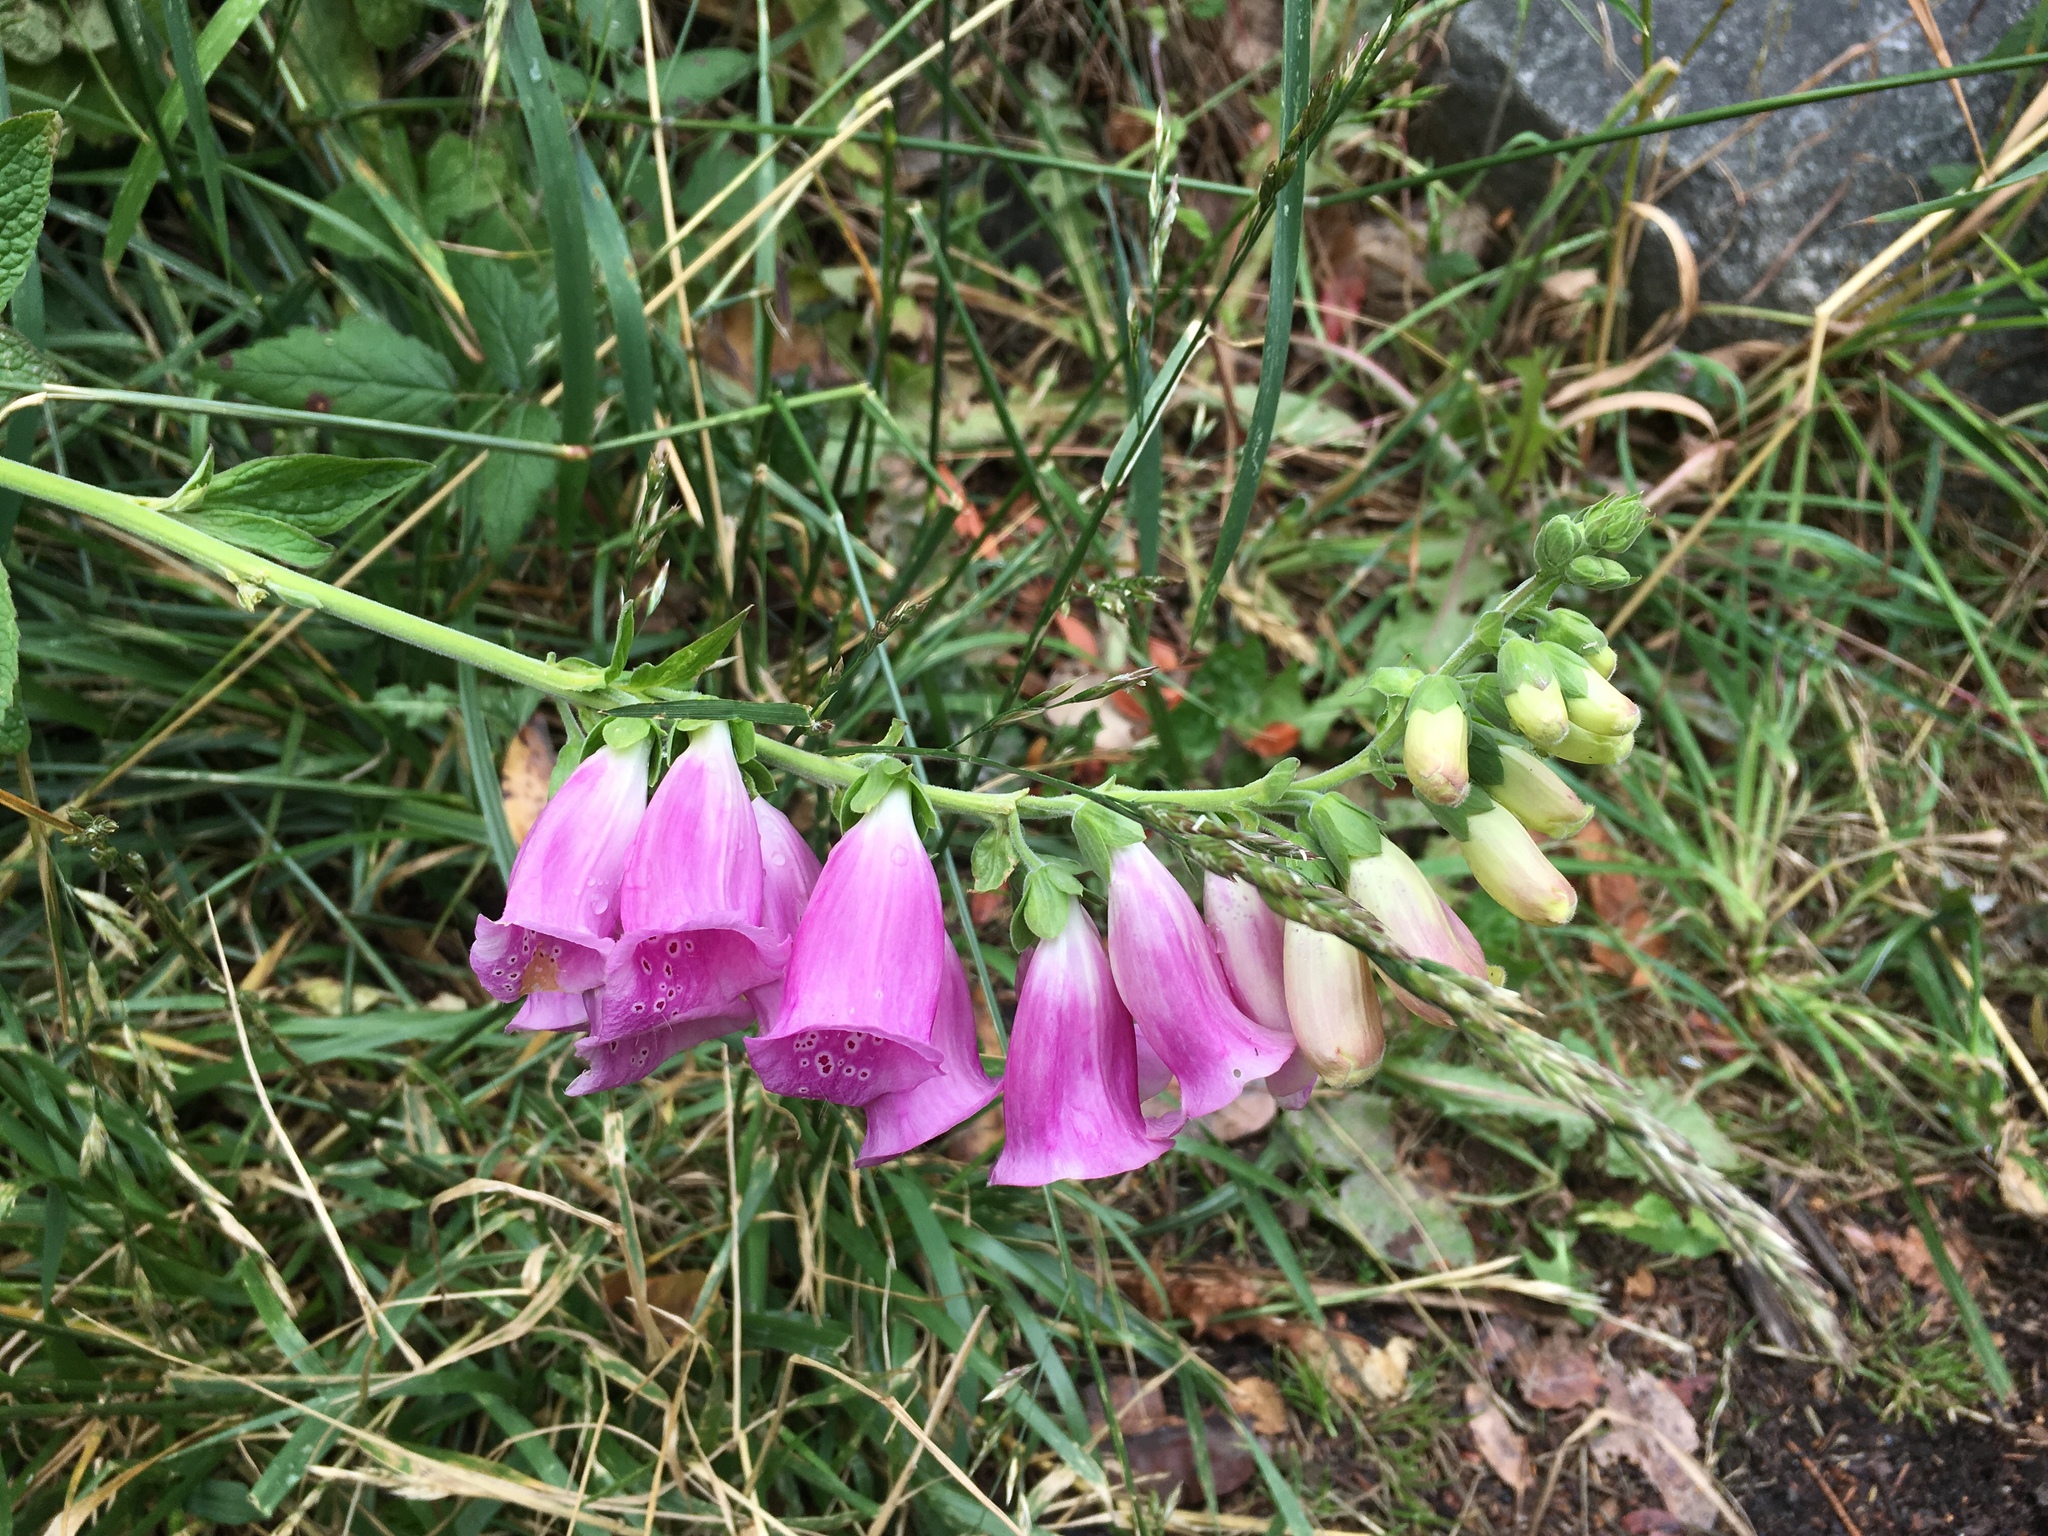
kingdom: Plantae
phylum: Tracheophyta
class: Magnoliopsida
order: Lamiales
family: Plantaginaceae
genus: Digitalis
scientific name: Digitalis purpurea
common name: Foxglove
